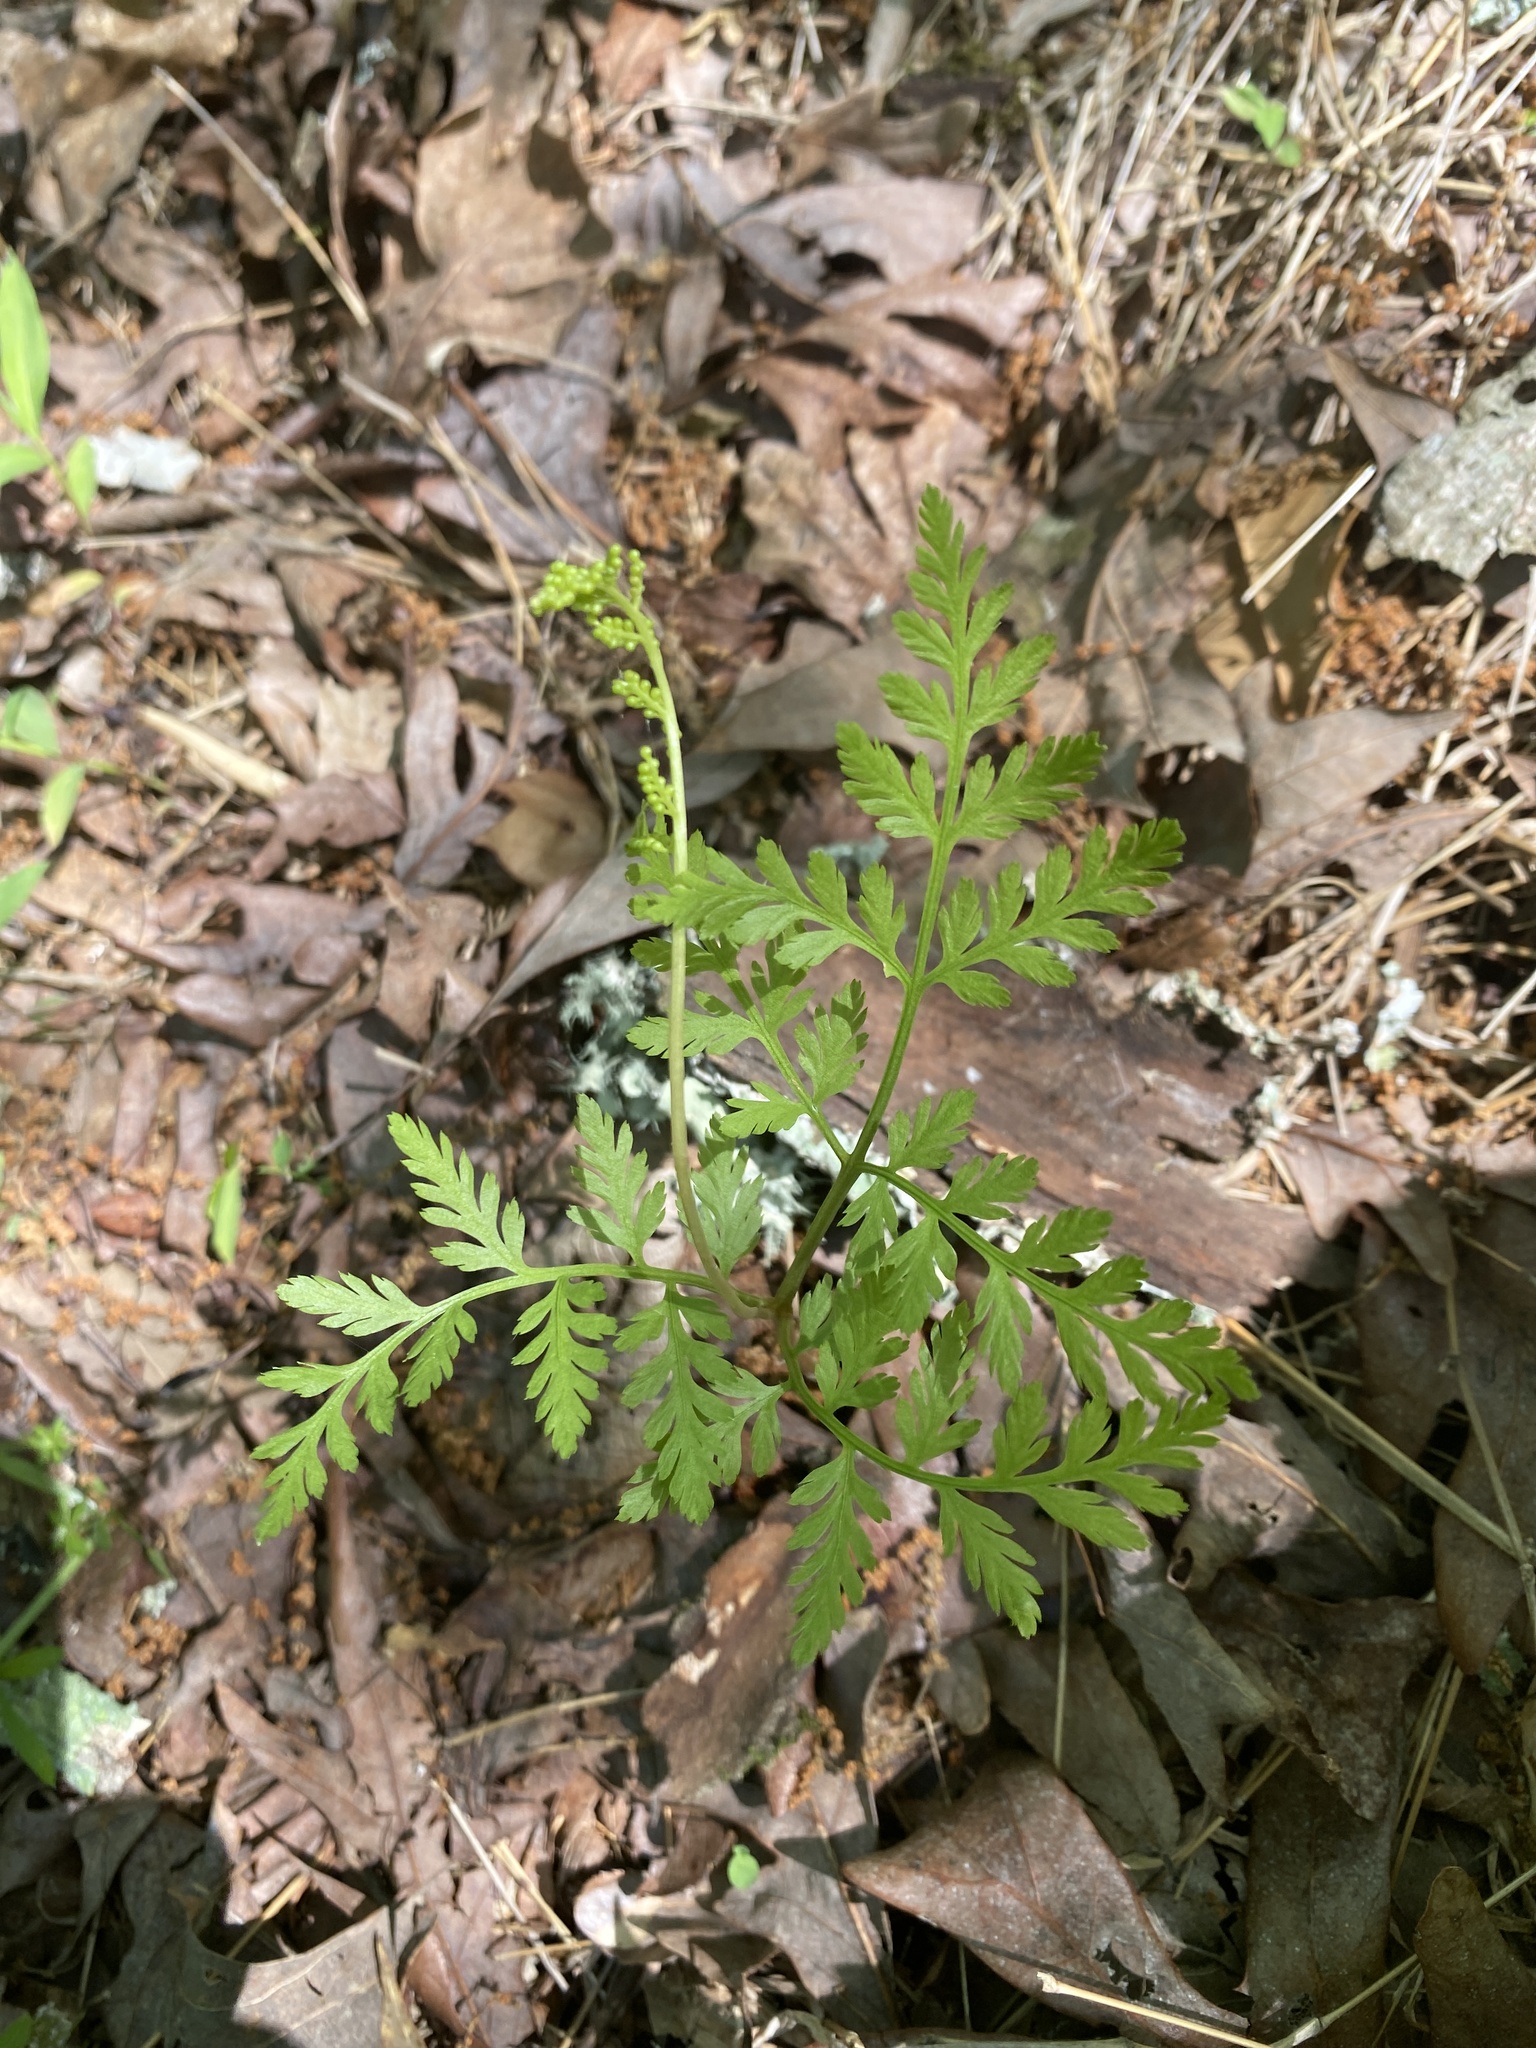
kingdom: Plantae
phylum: Tracheophyta
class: Polypodiopsida
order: Ophioglossales
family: Ophioglossaceae
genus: Botrypus
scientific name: Botrypus virginianus
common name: Common grapefern
